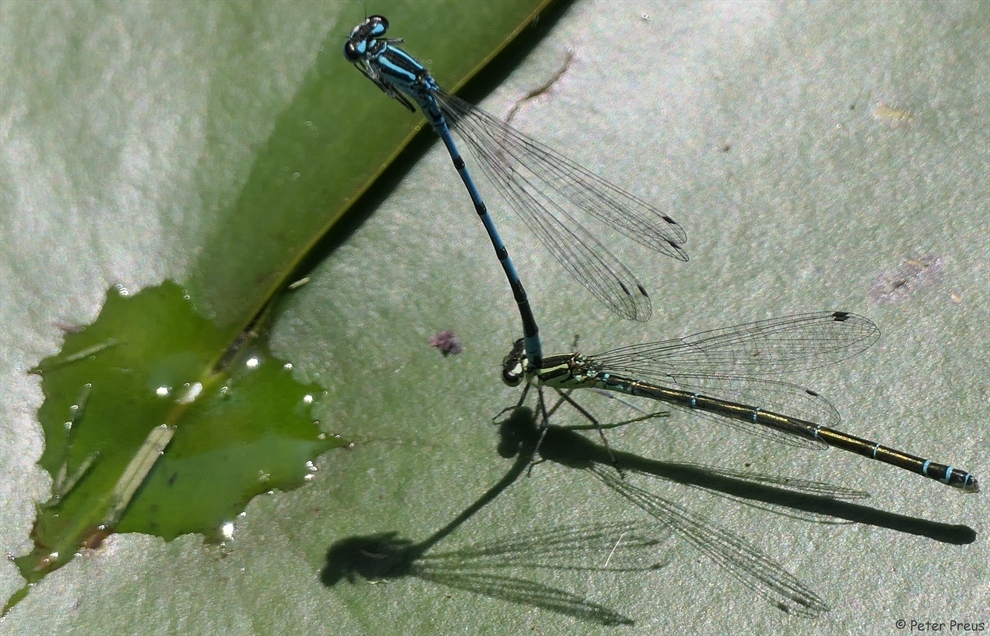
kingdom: Animalia
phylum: Arthropoda
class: Insecta
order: Odonata
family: Coenagrionidae
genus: Coenagrion
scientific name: Coenagrion puella
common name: Azure damselfly
